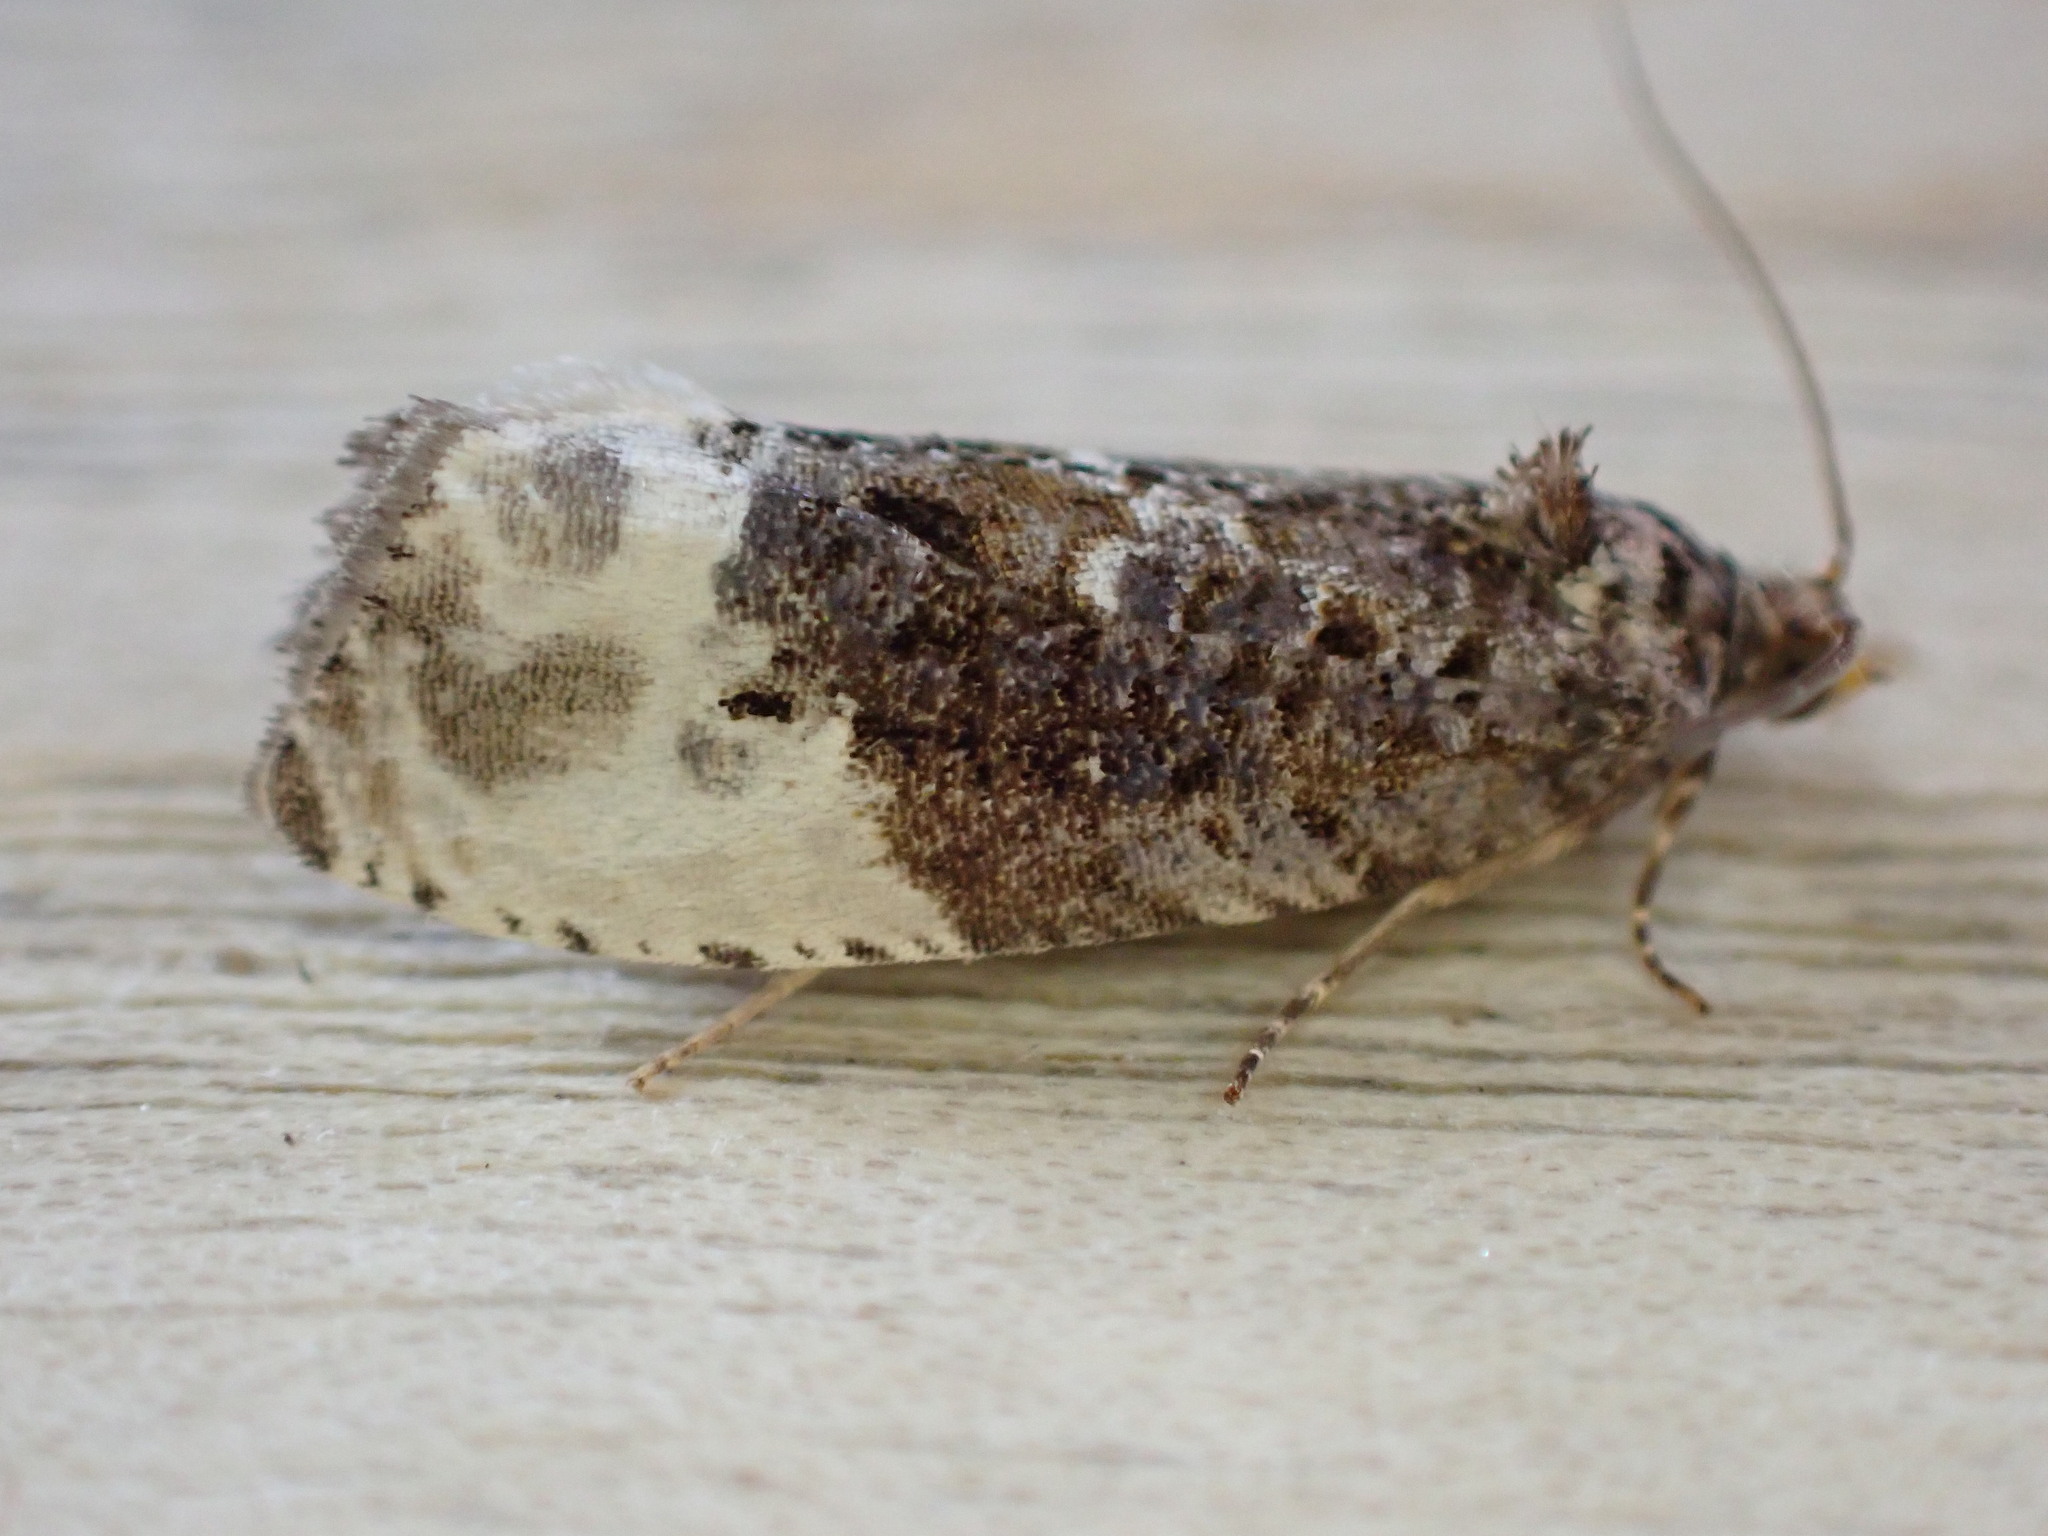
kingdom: Animalia
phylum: Arthropoda
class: Insecta
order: Lepidoptera
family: Tortricidae
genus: Hedya
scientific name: Hedya nubiferana
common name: Marbled orchard tortrix
